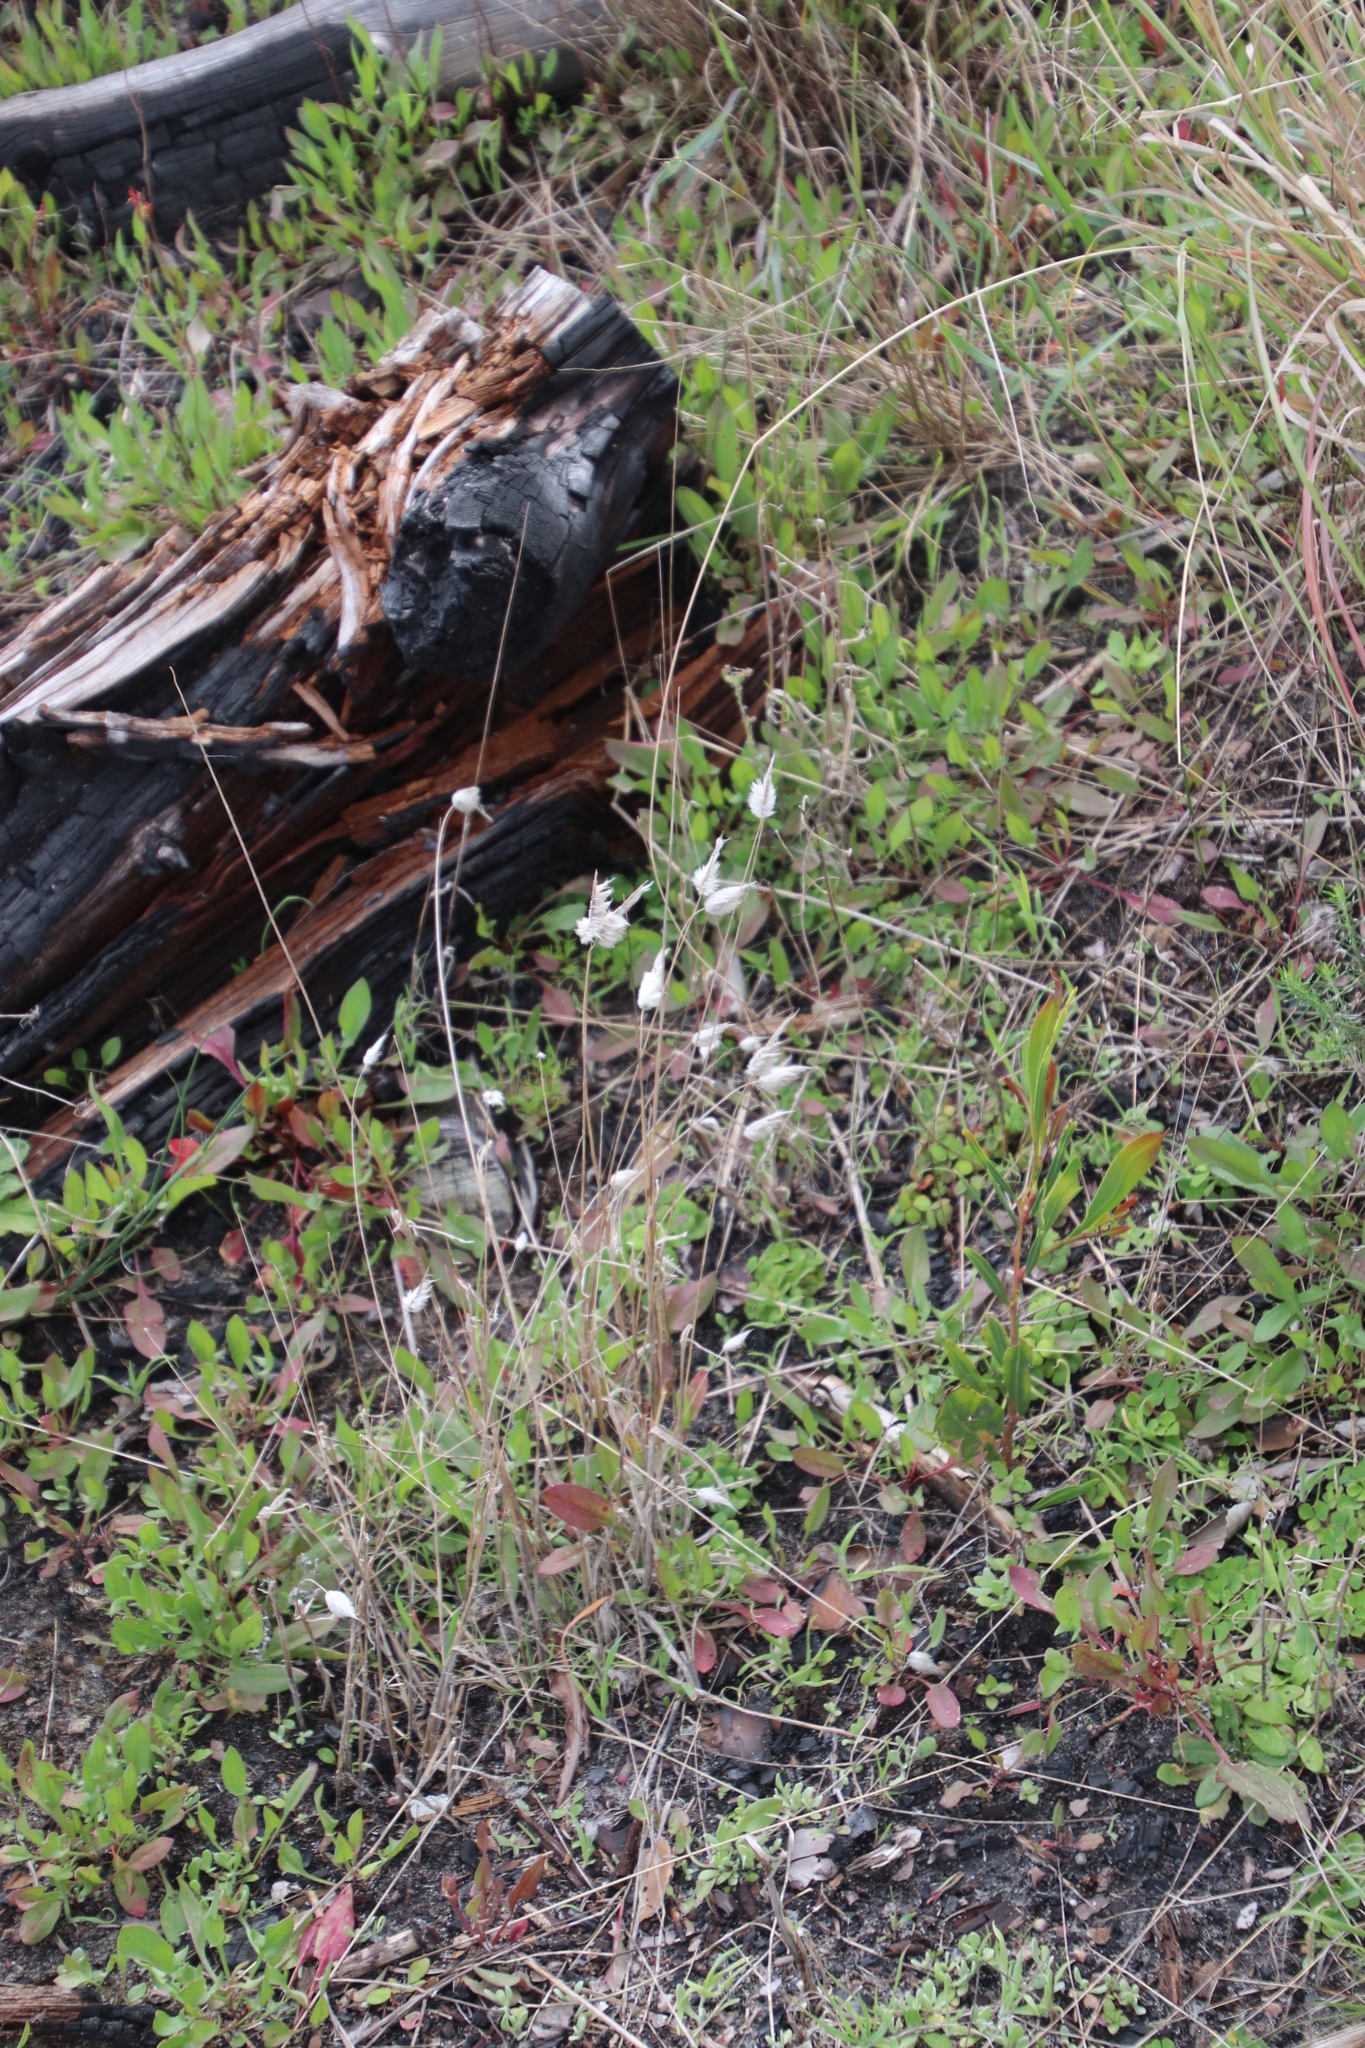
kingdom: Plantae
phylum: Tracheophyta
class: Liliopsida
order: Poales
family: Poaceae
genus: Lagurus
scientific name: Lagurus ovatus
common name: Hare's-tail
